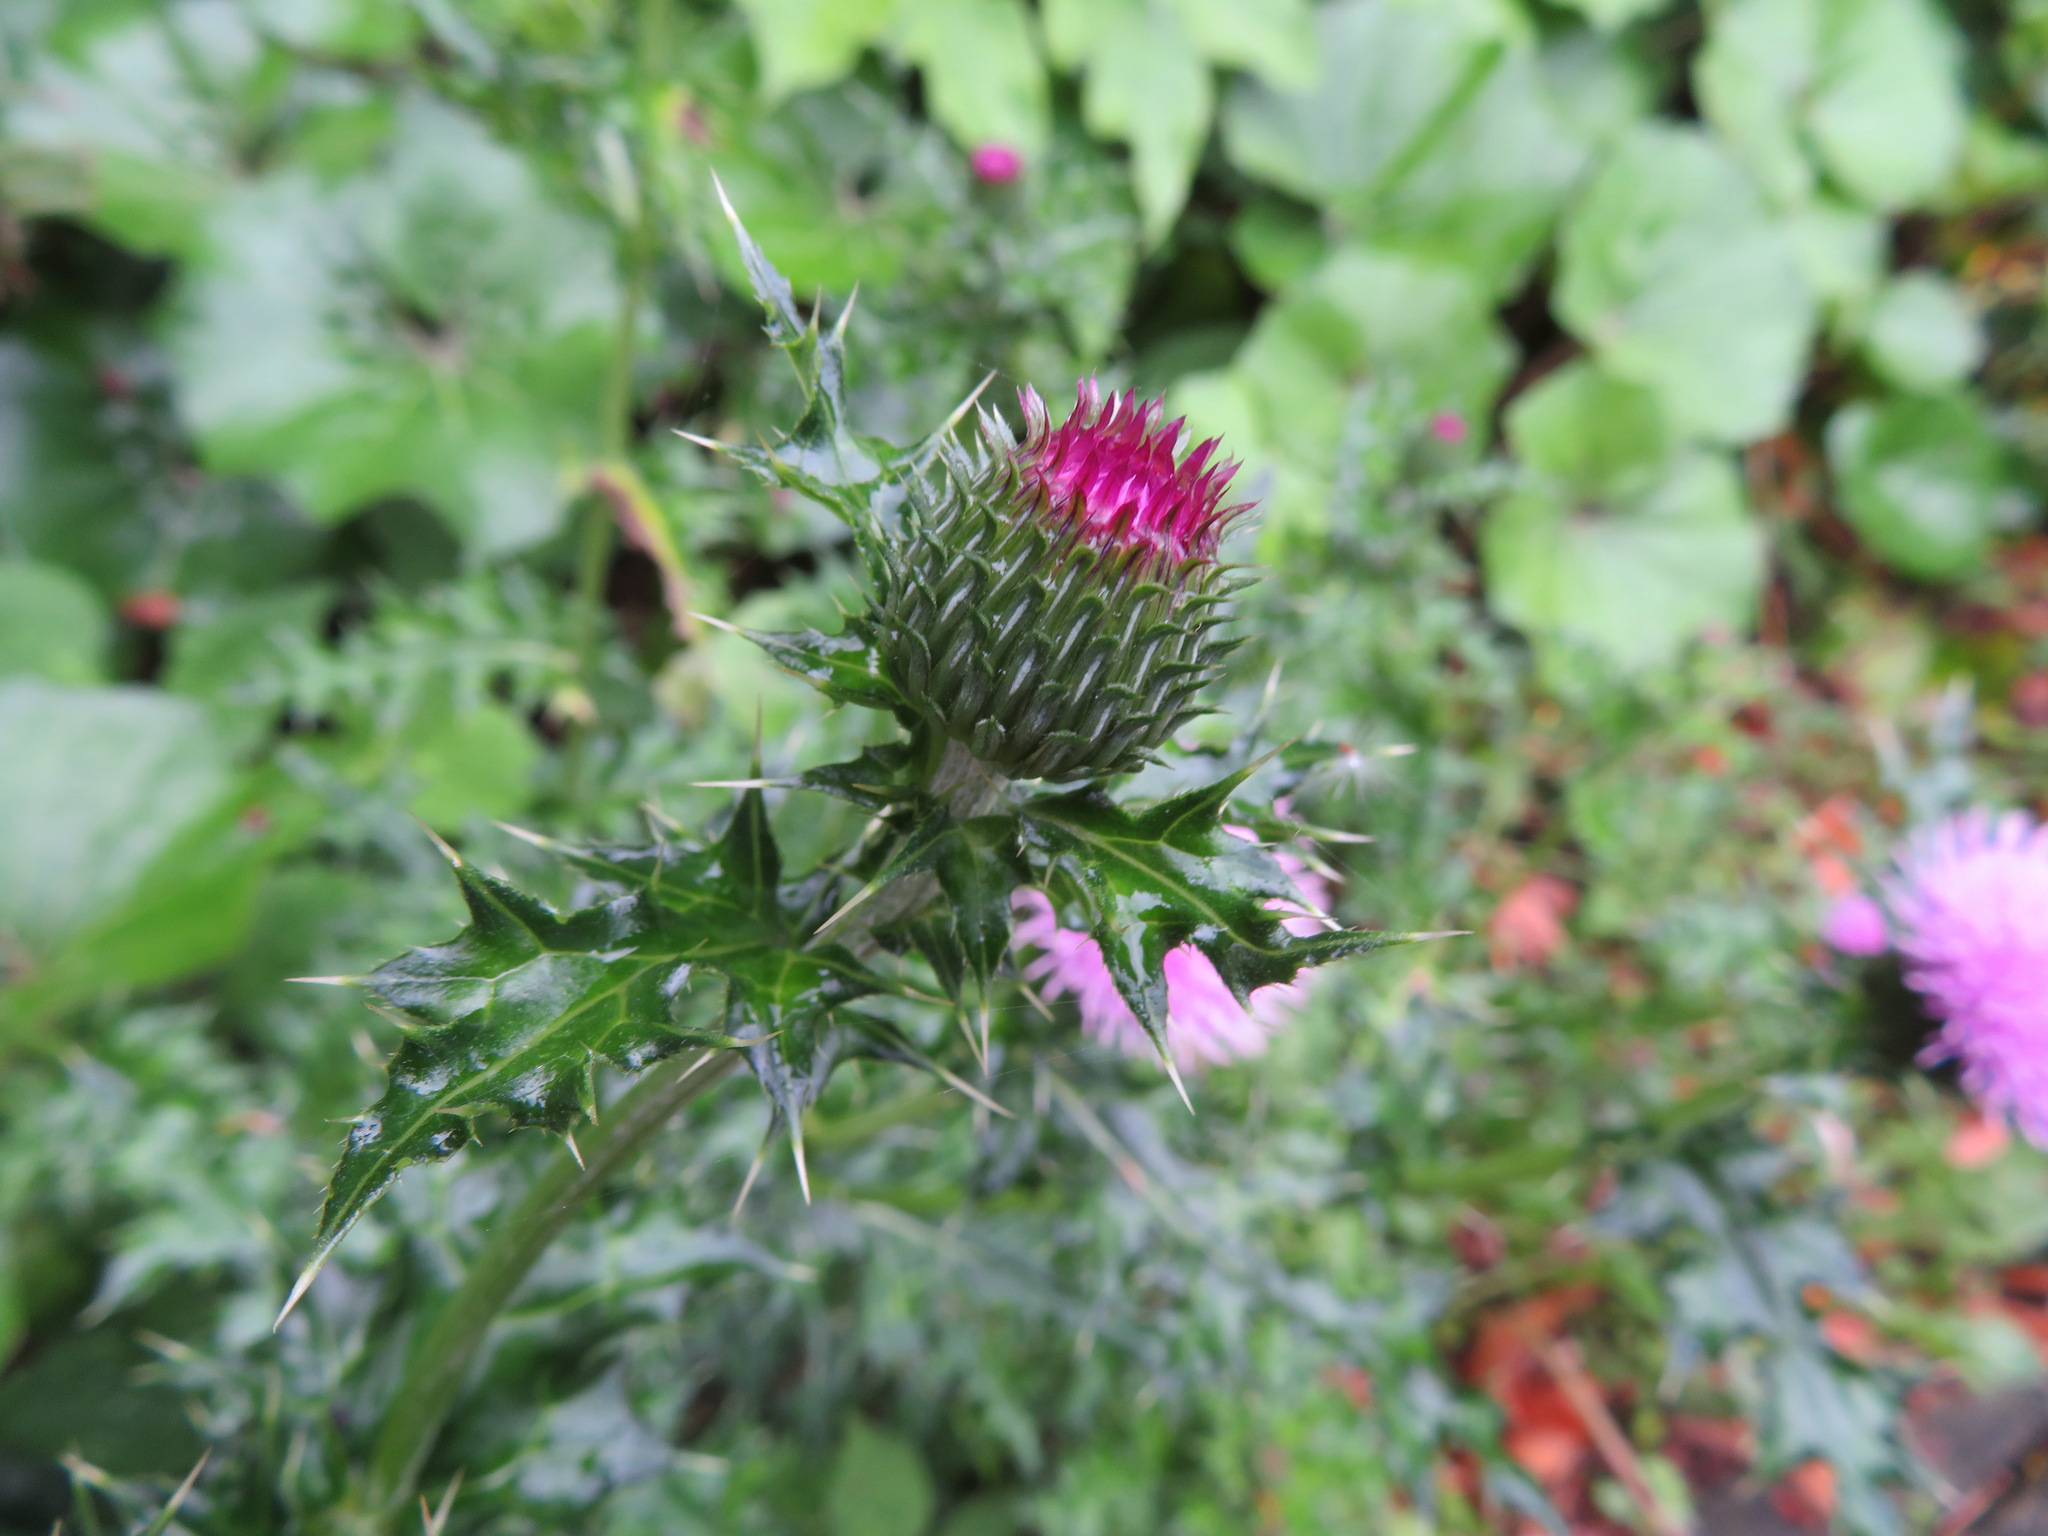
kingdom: Plantae
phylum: Tracheophyta
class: Magnoliopsida
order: Asterales
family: Asteraceae
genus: Cirsium
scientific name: Cirsium japonicum
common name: Japanese thistle
